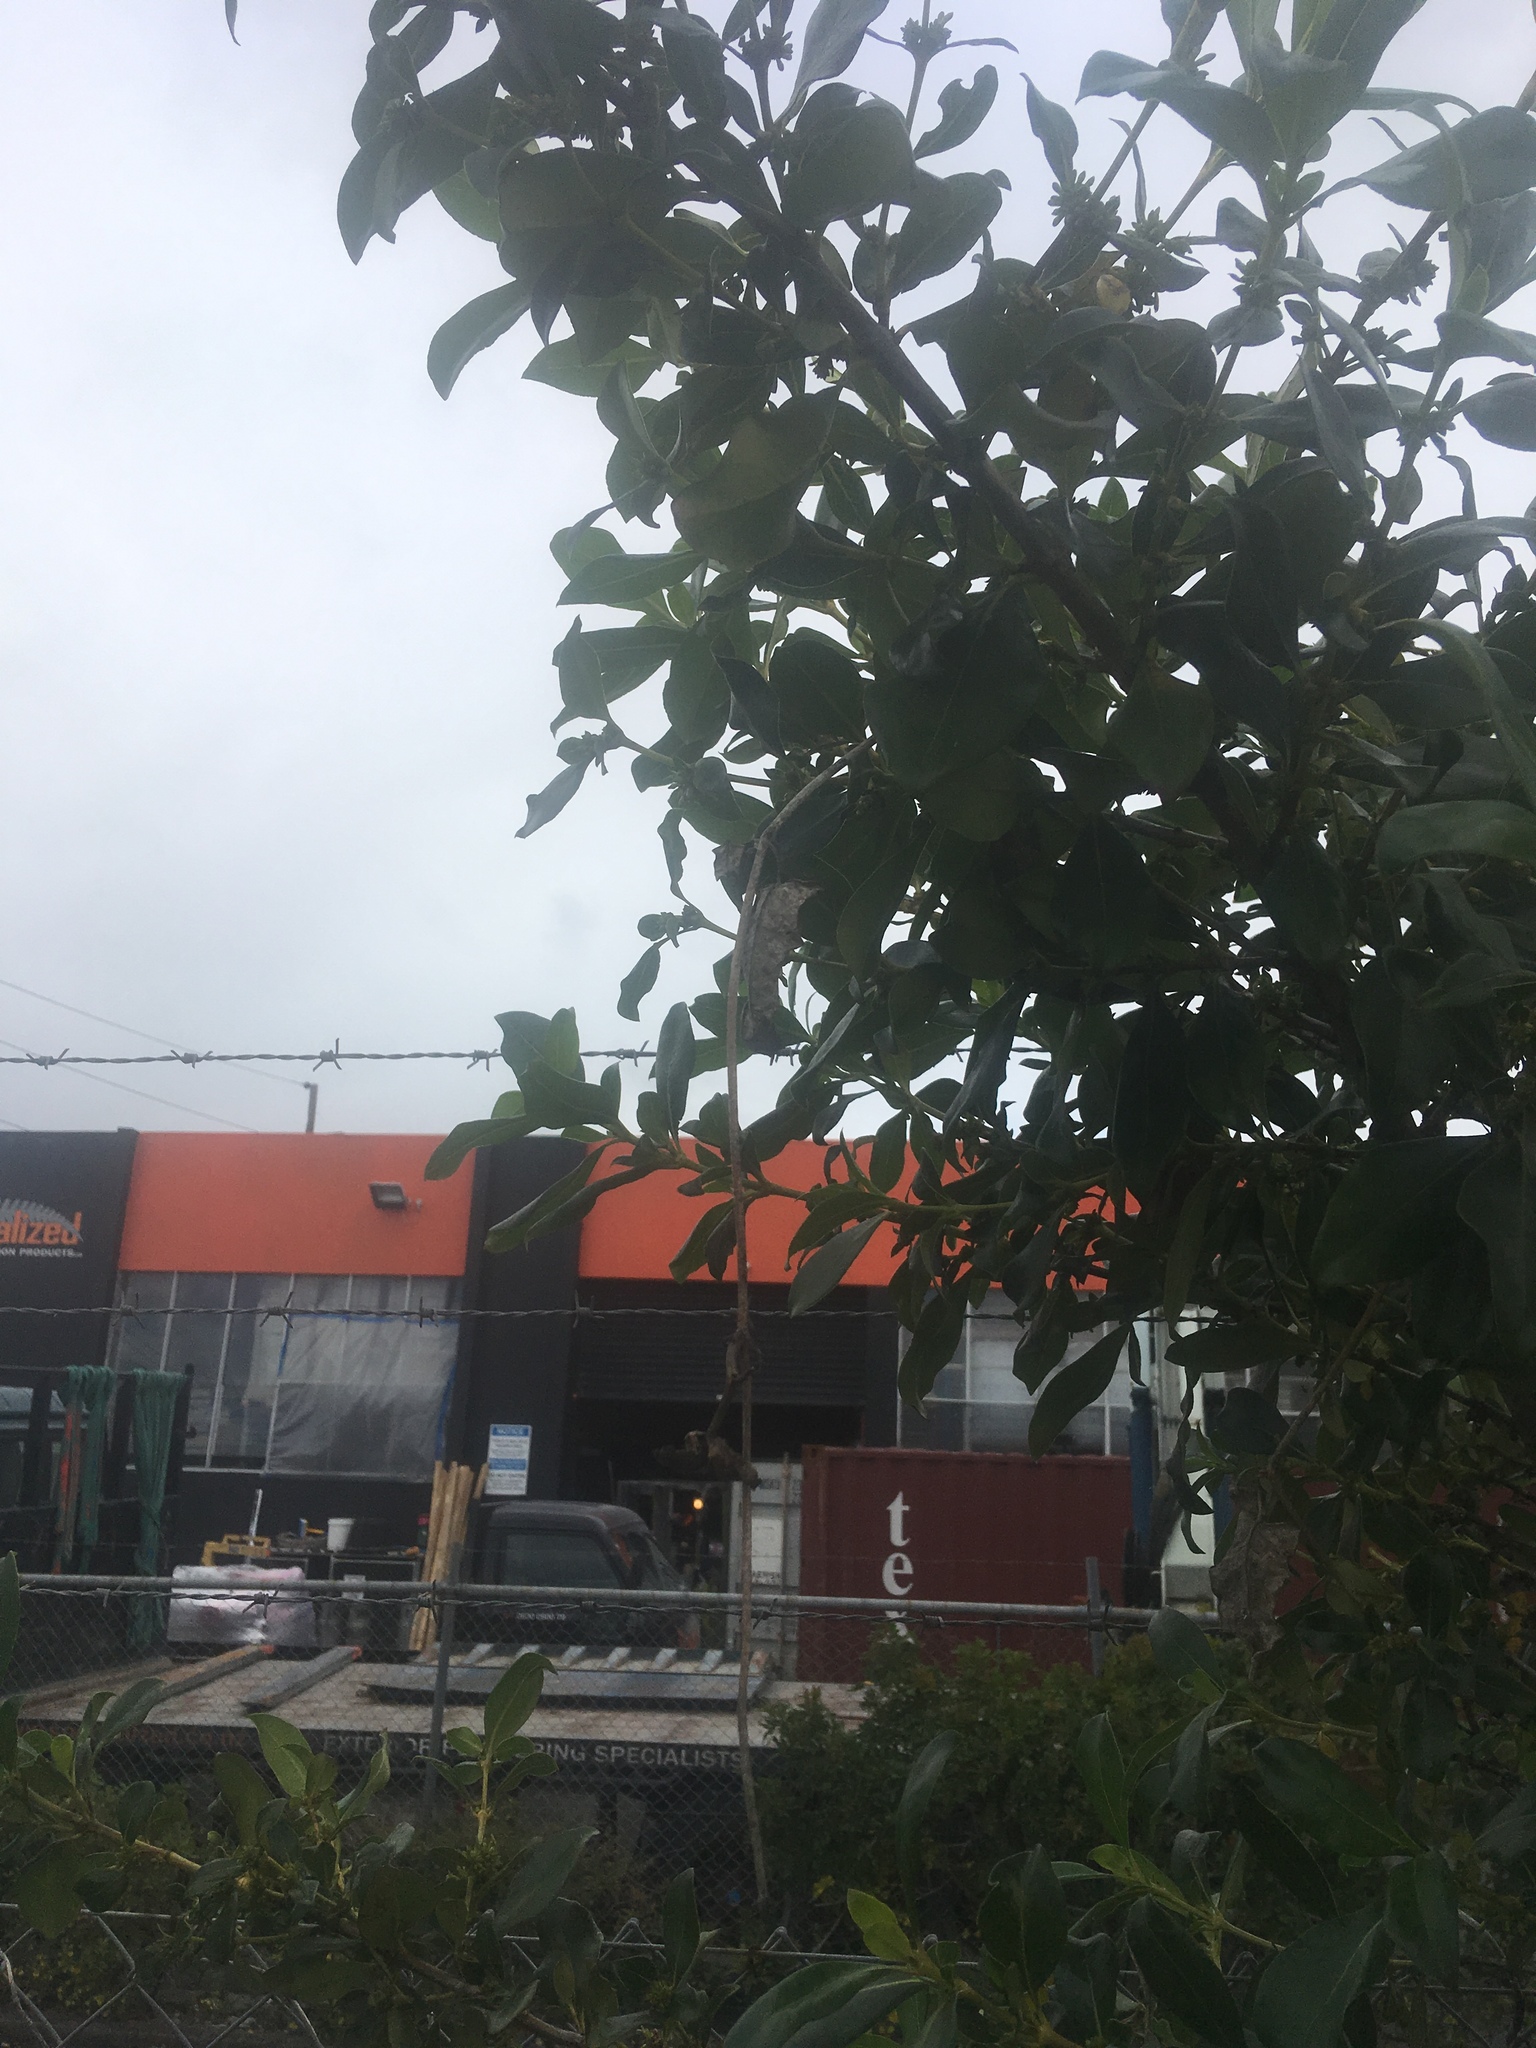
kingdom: Plantae
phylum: Tracheophyta
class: Magnoliopsida
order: Gentianales
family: Apocynaceae
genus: Araujia
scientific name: Araujia sericifera
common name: White bladderflower
